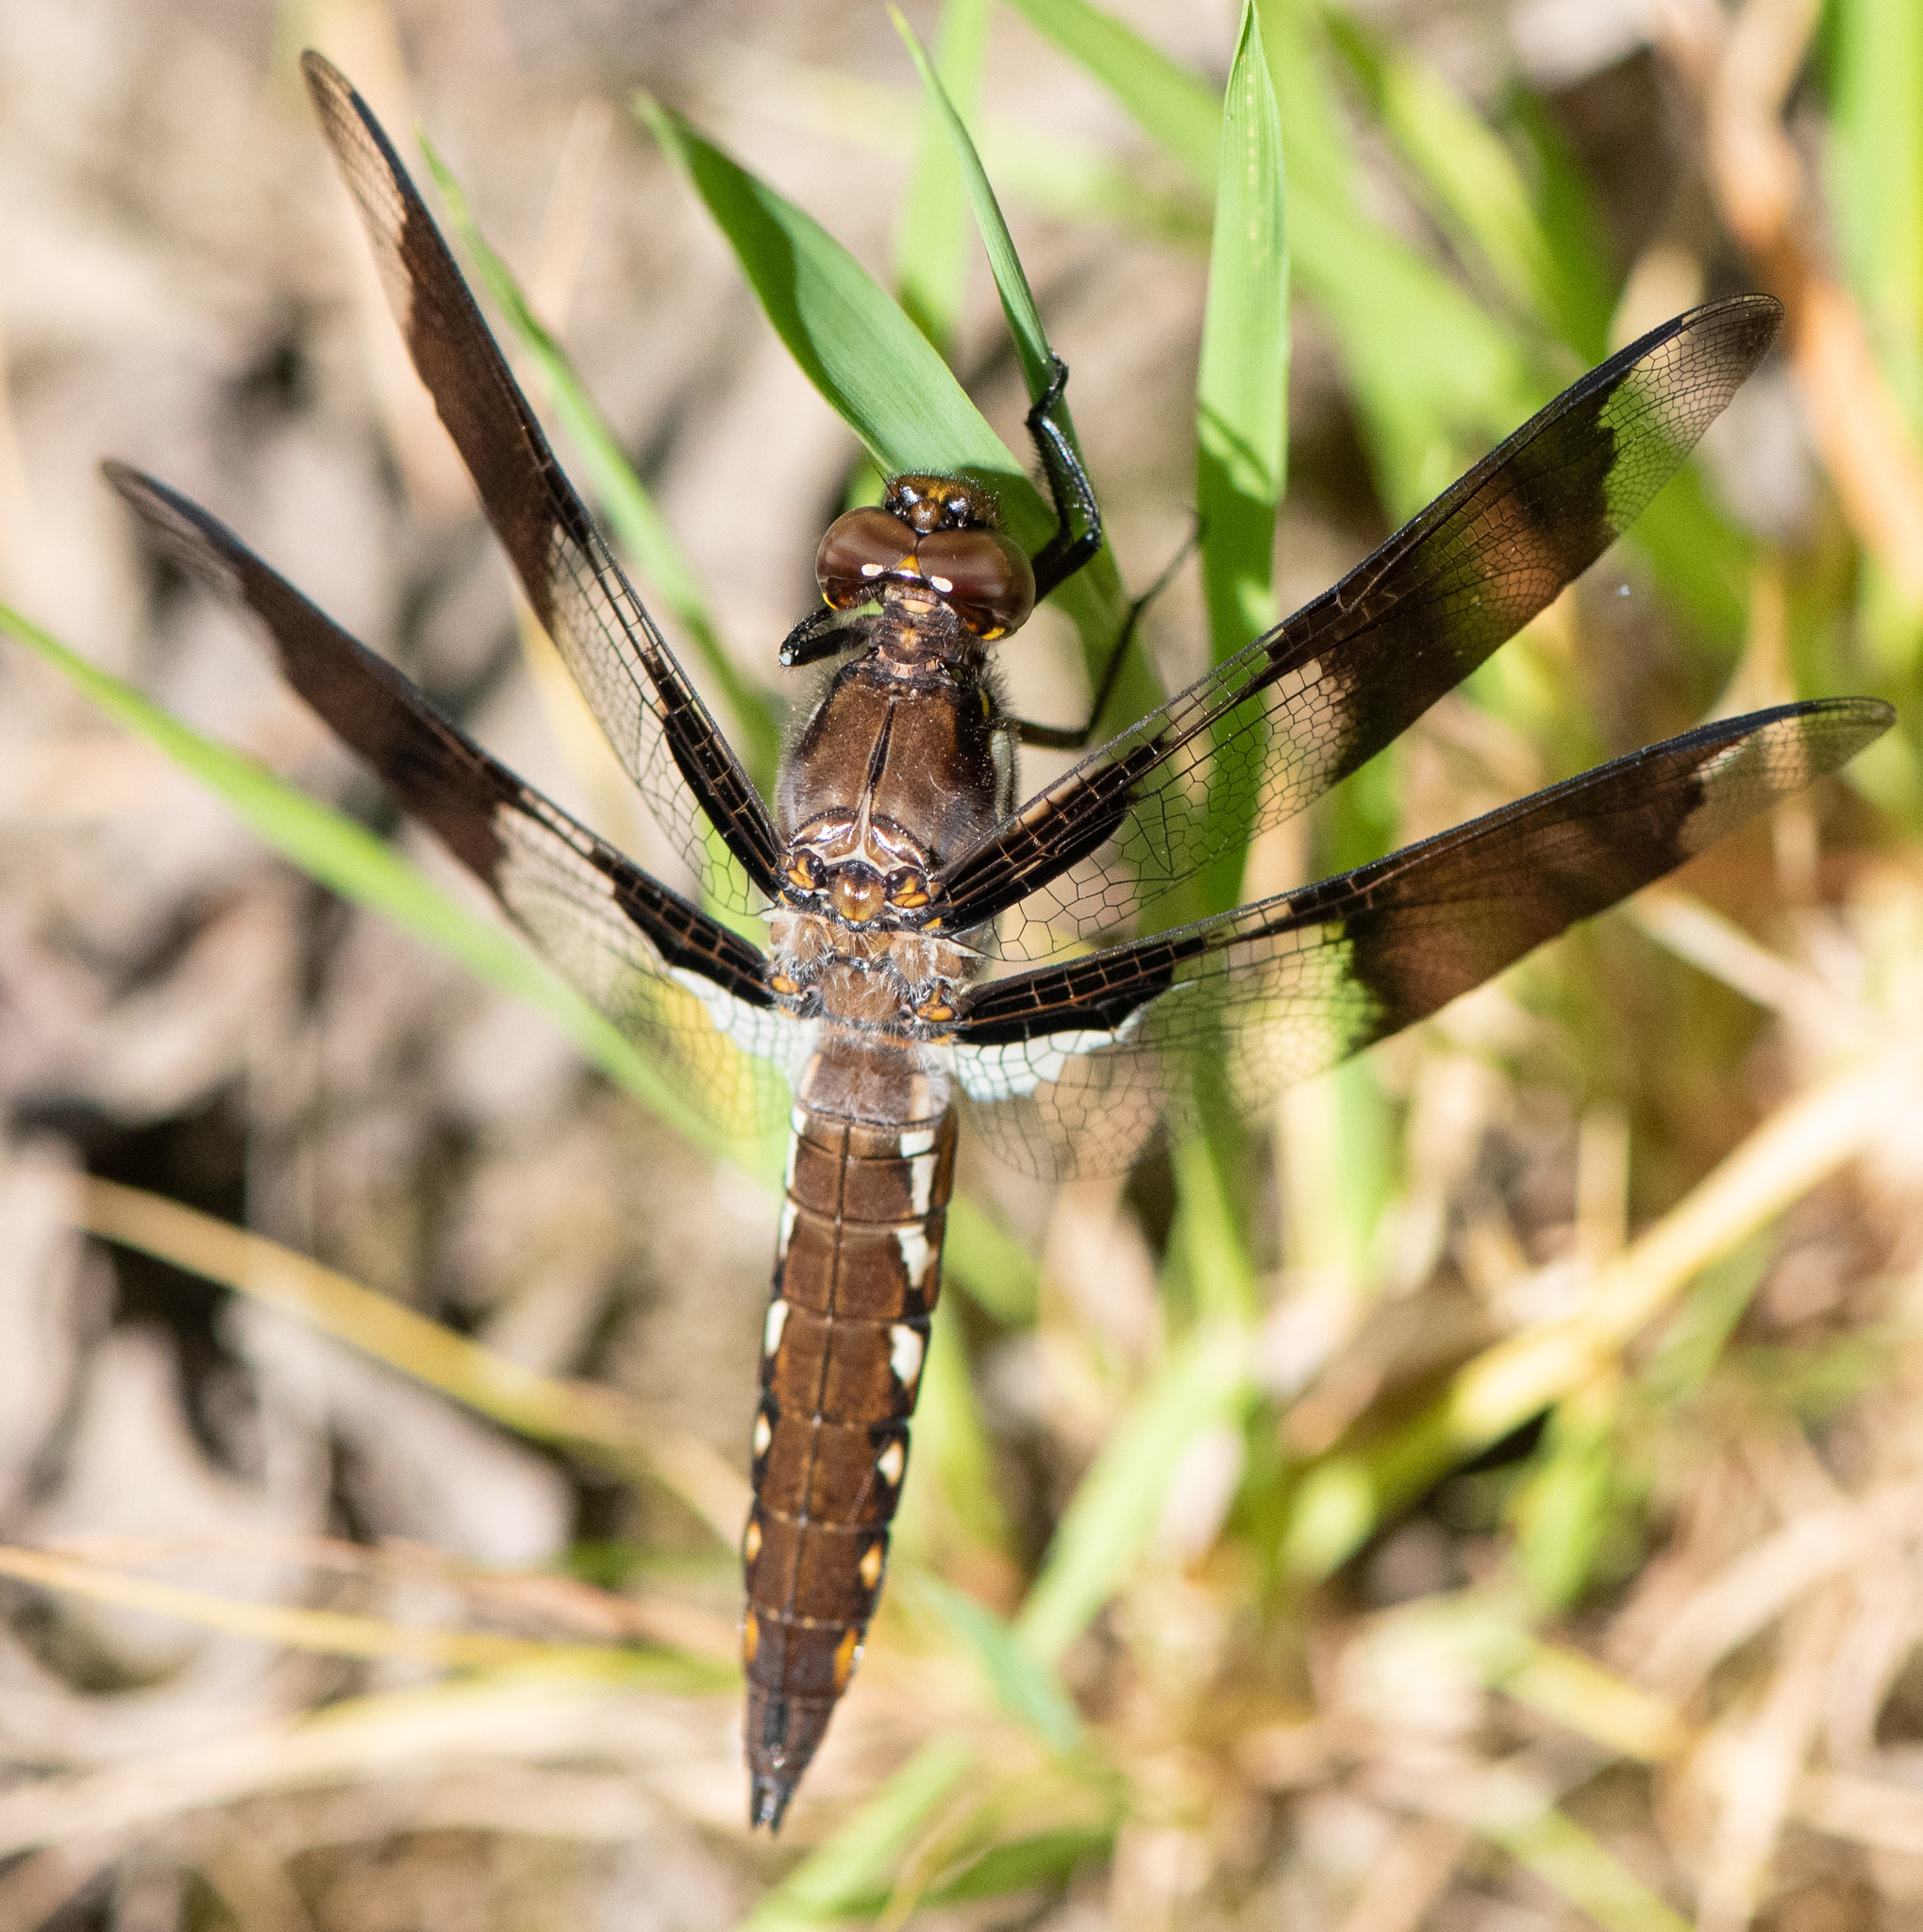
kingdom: Animalia
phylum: Arthropoda
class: Insecta
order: Odonata
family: Libellulidae
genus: Plathemis
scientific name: Plathemis lydia
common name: Common whitetail
